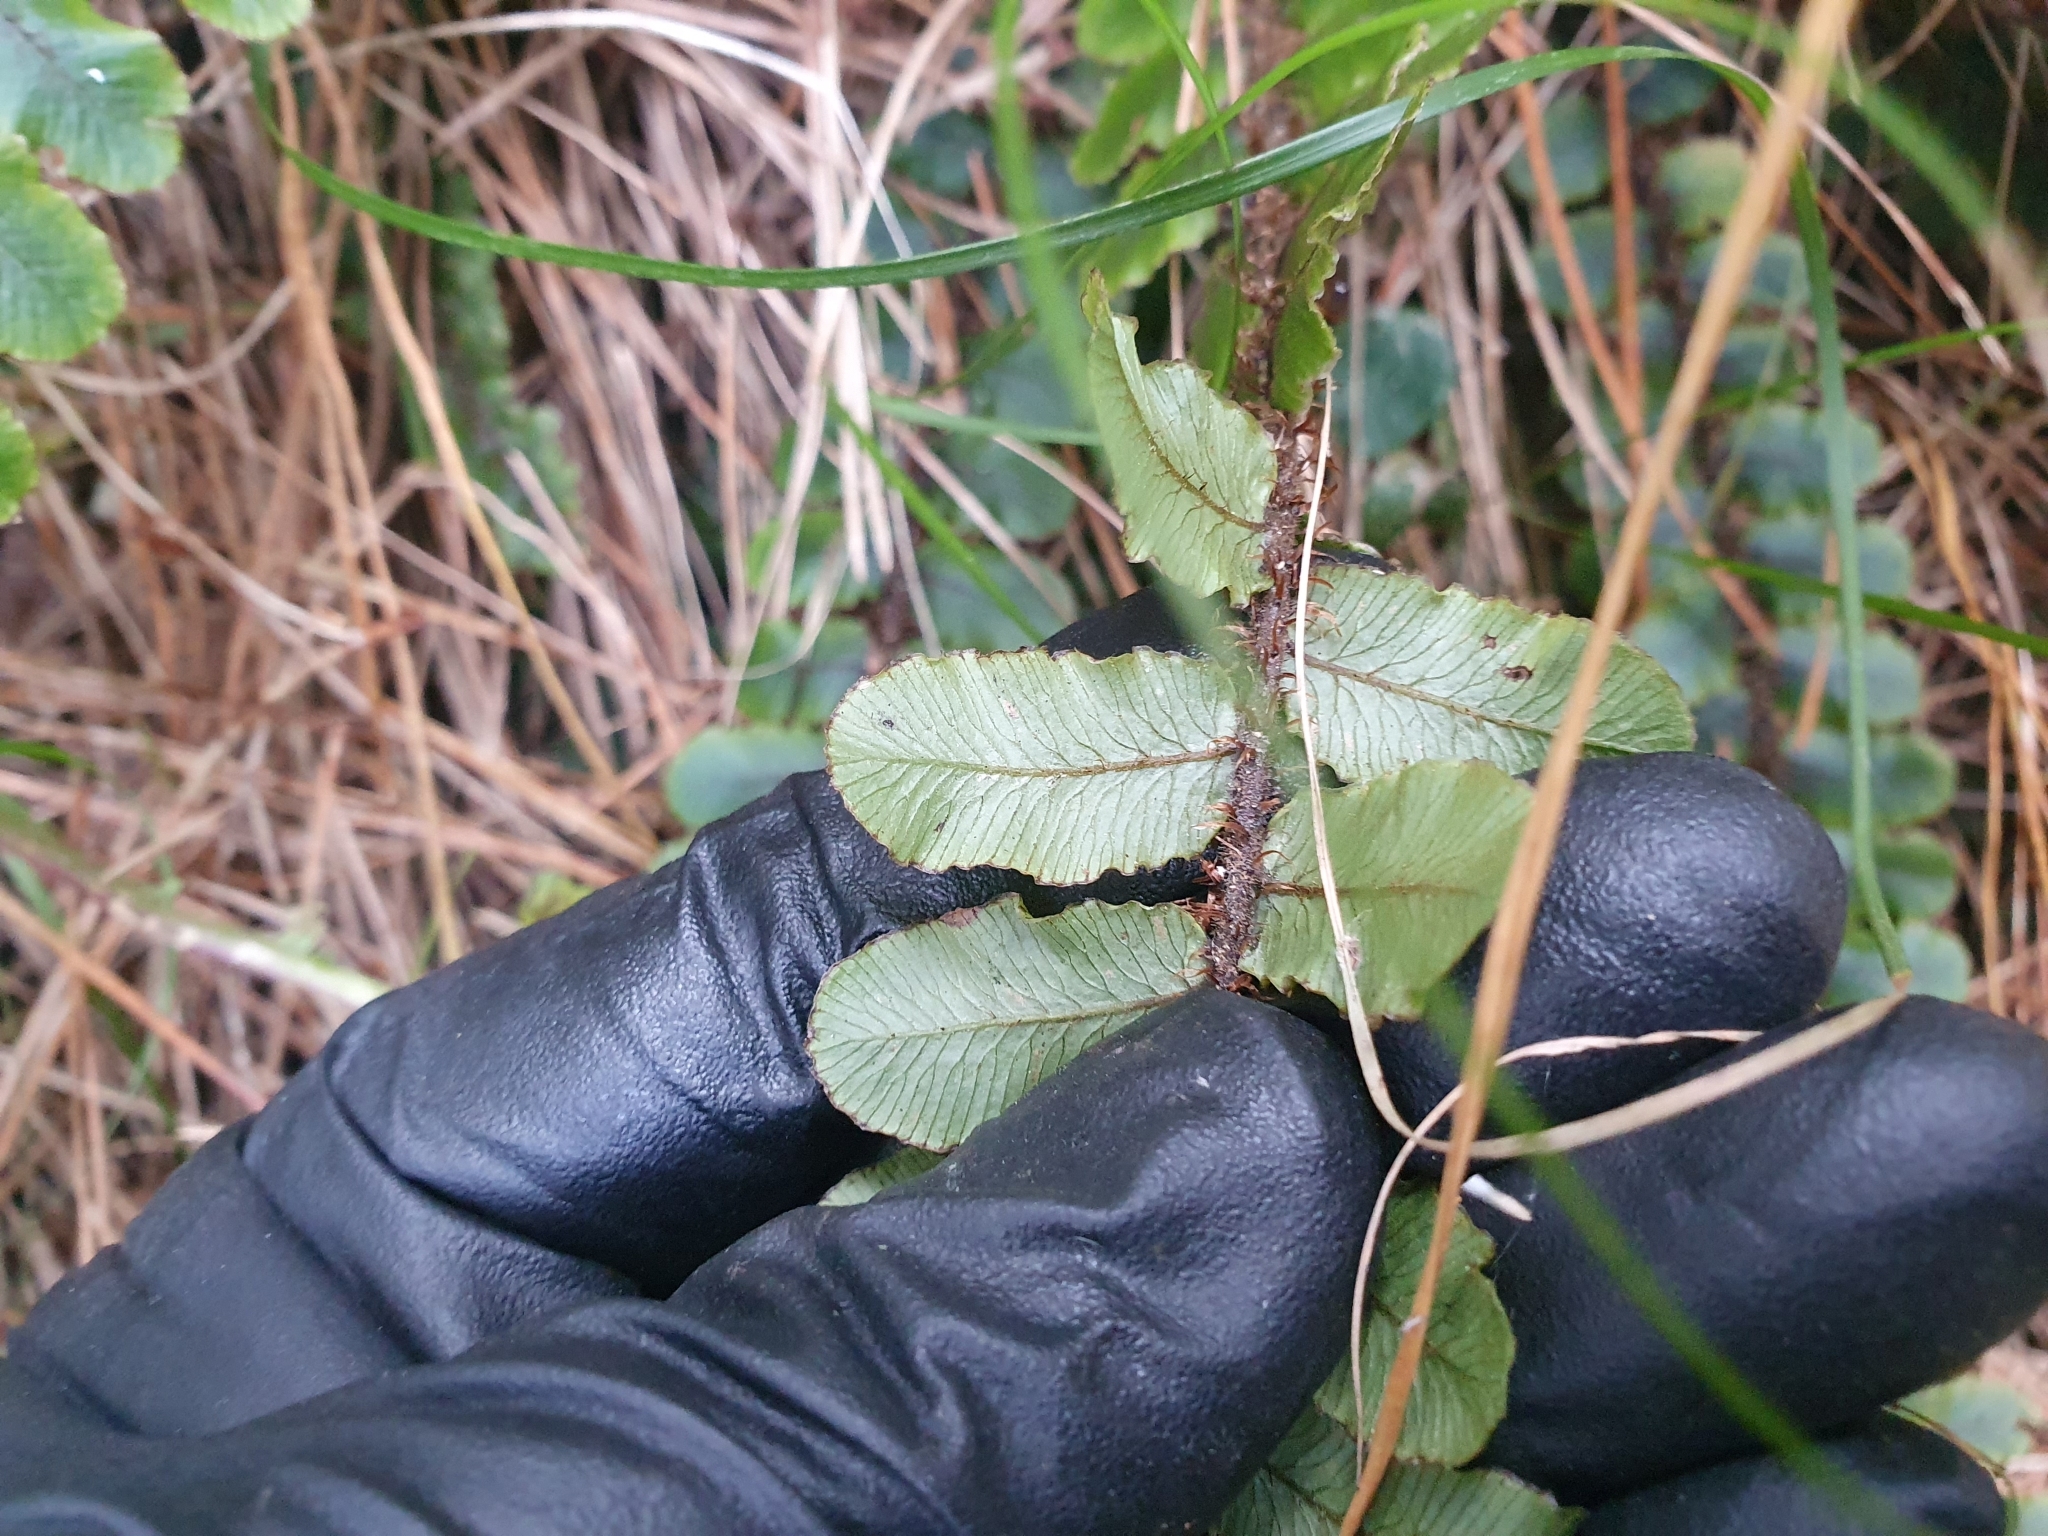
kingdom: Plantae
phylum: Tracheophyta
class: Polypodiopsida
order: Polypodiales
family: Blechnaceae
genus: Cranfillia
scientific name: Cranfillia fluviatilis
